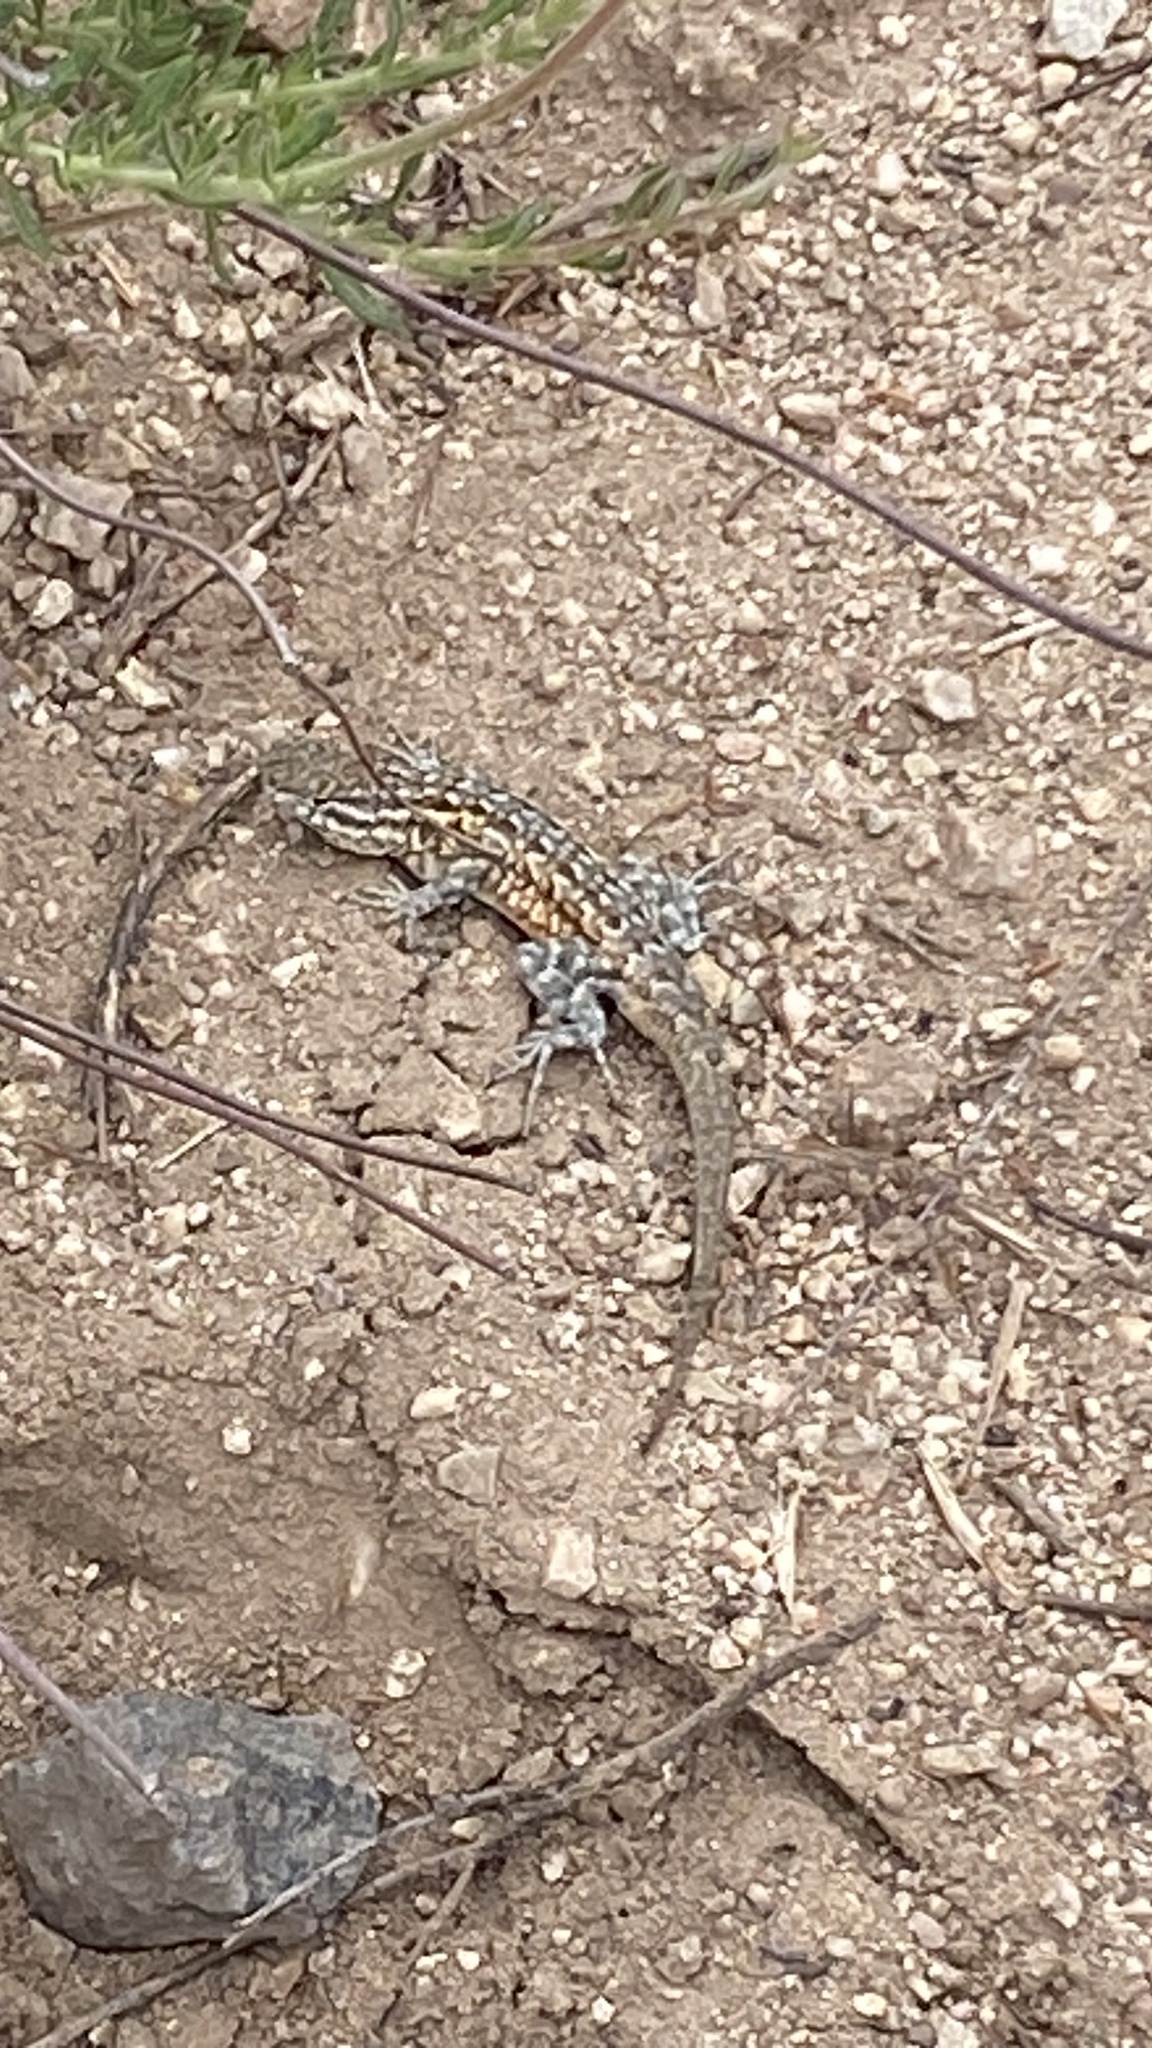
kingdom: Animalia
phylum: Chordata
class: Squamata
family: Phrynosomatidae
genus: Uta
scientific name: Uta stansburiana
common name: Side-blotched lizard
